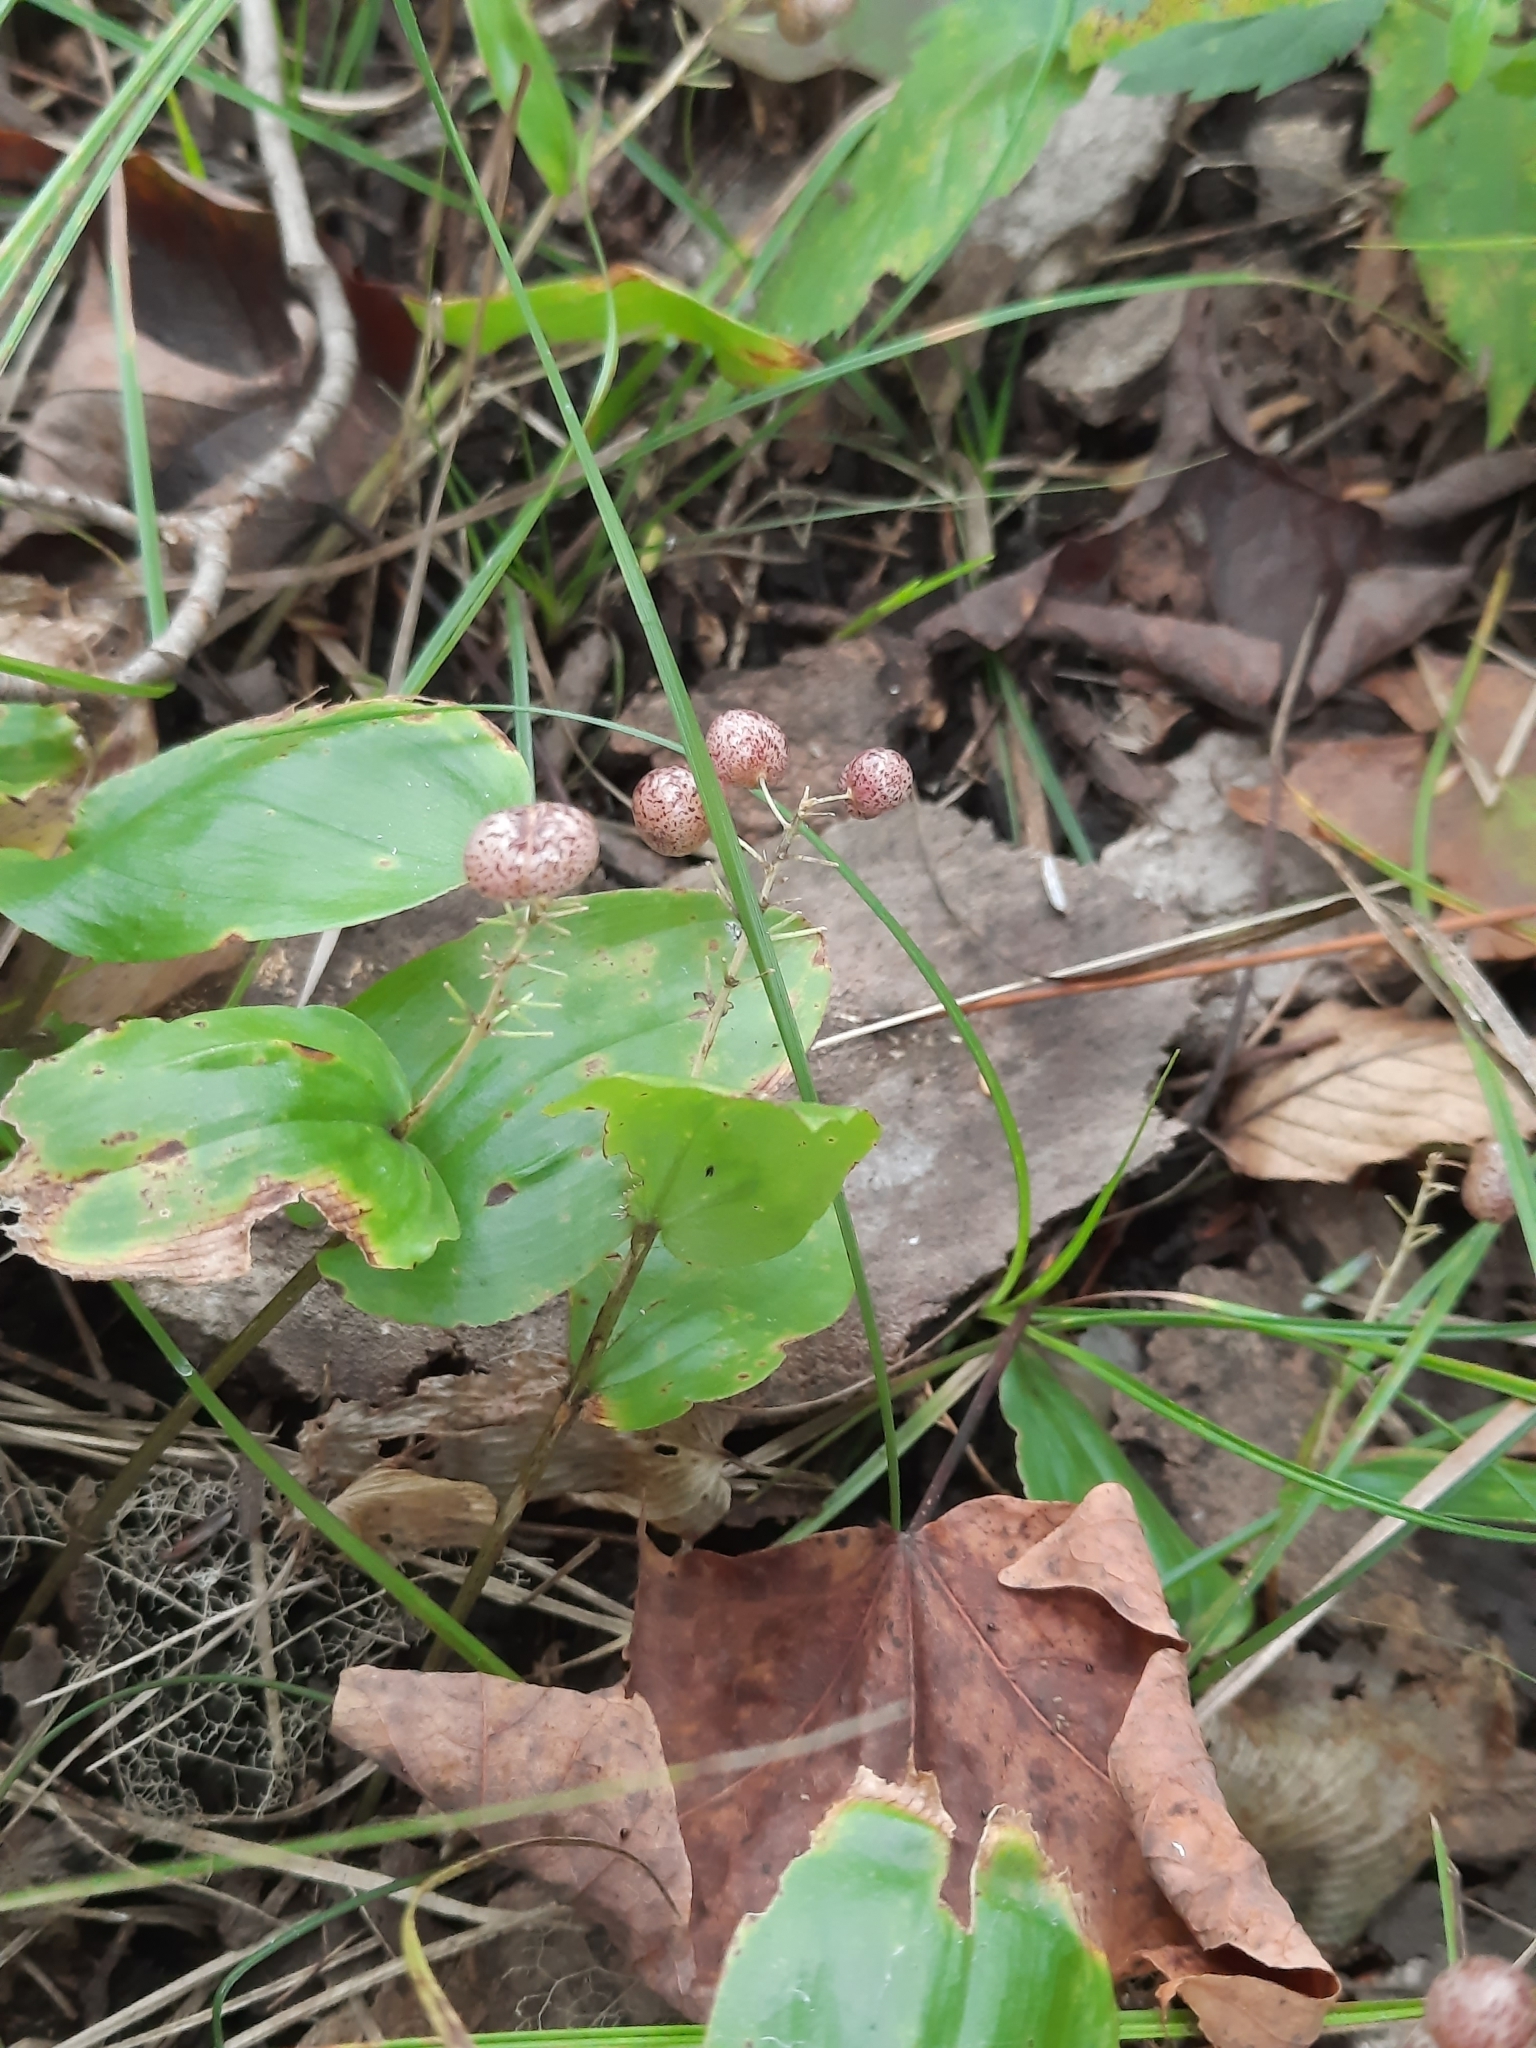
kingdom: Plantae
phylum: Tracheophyta
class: Liliopsida
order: Asparagales
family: Asparagaceae
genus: Maianthemum
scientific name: Maianthemum canadense
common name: False lily-of-the-valley
